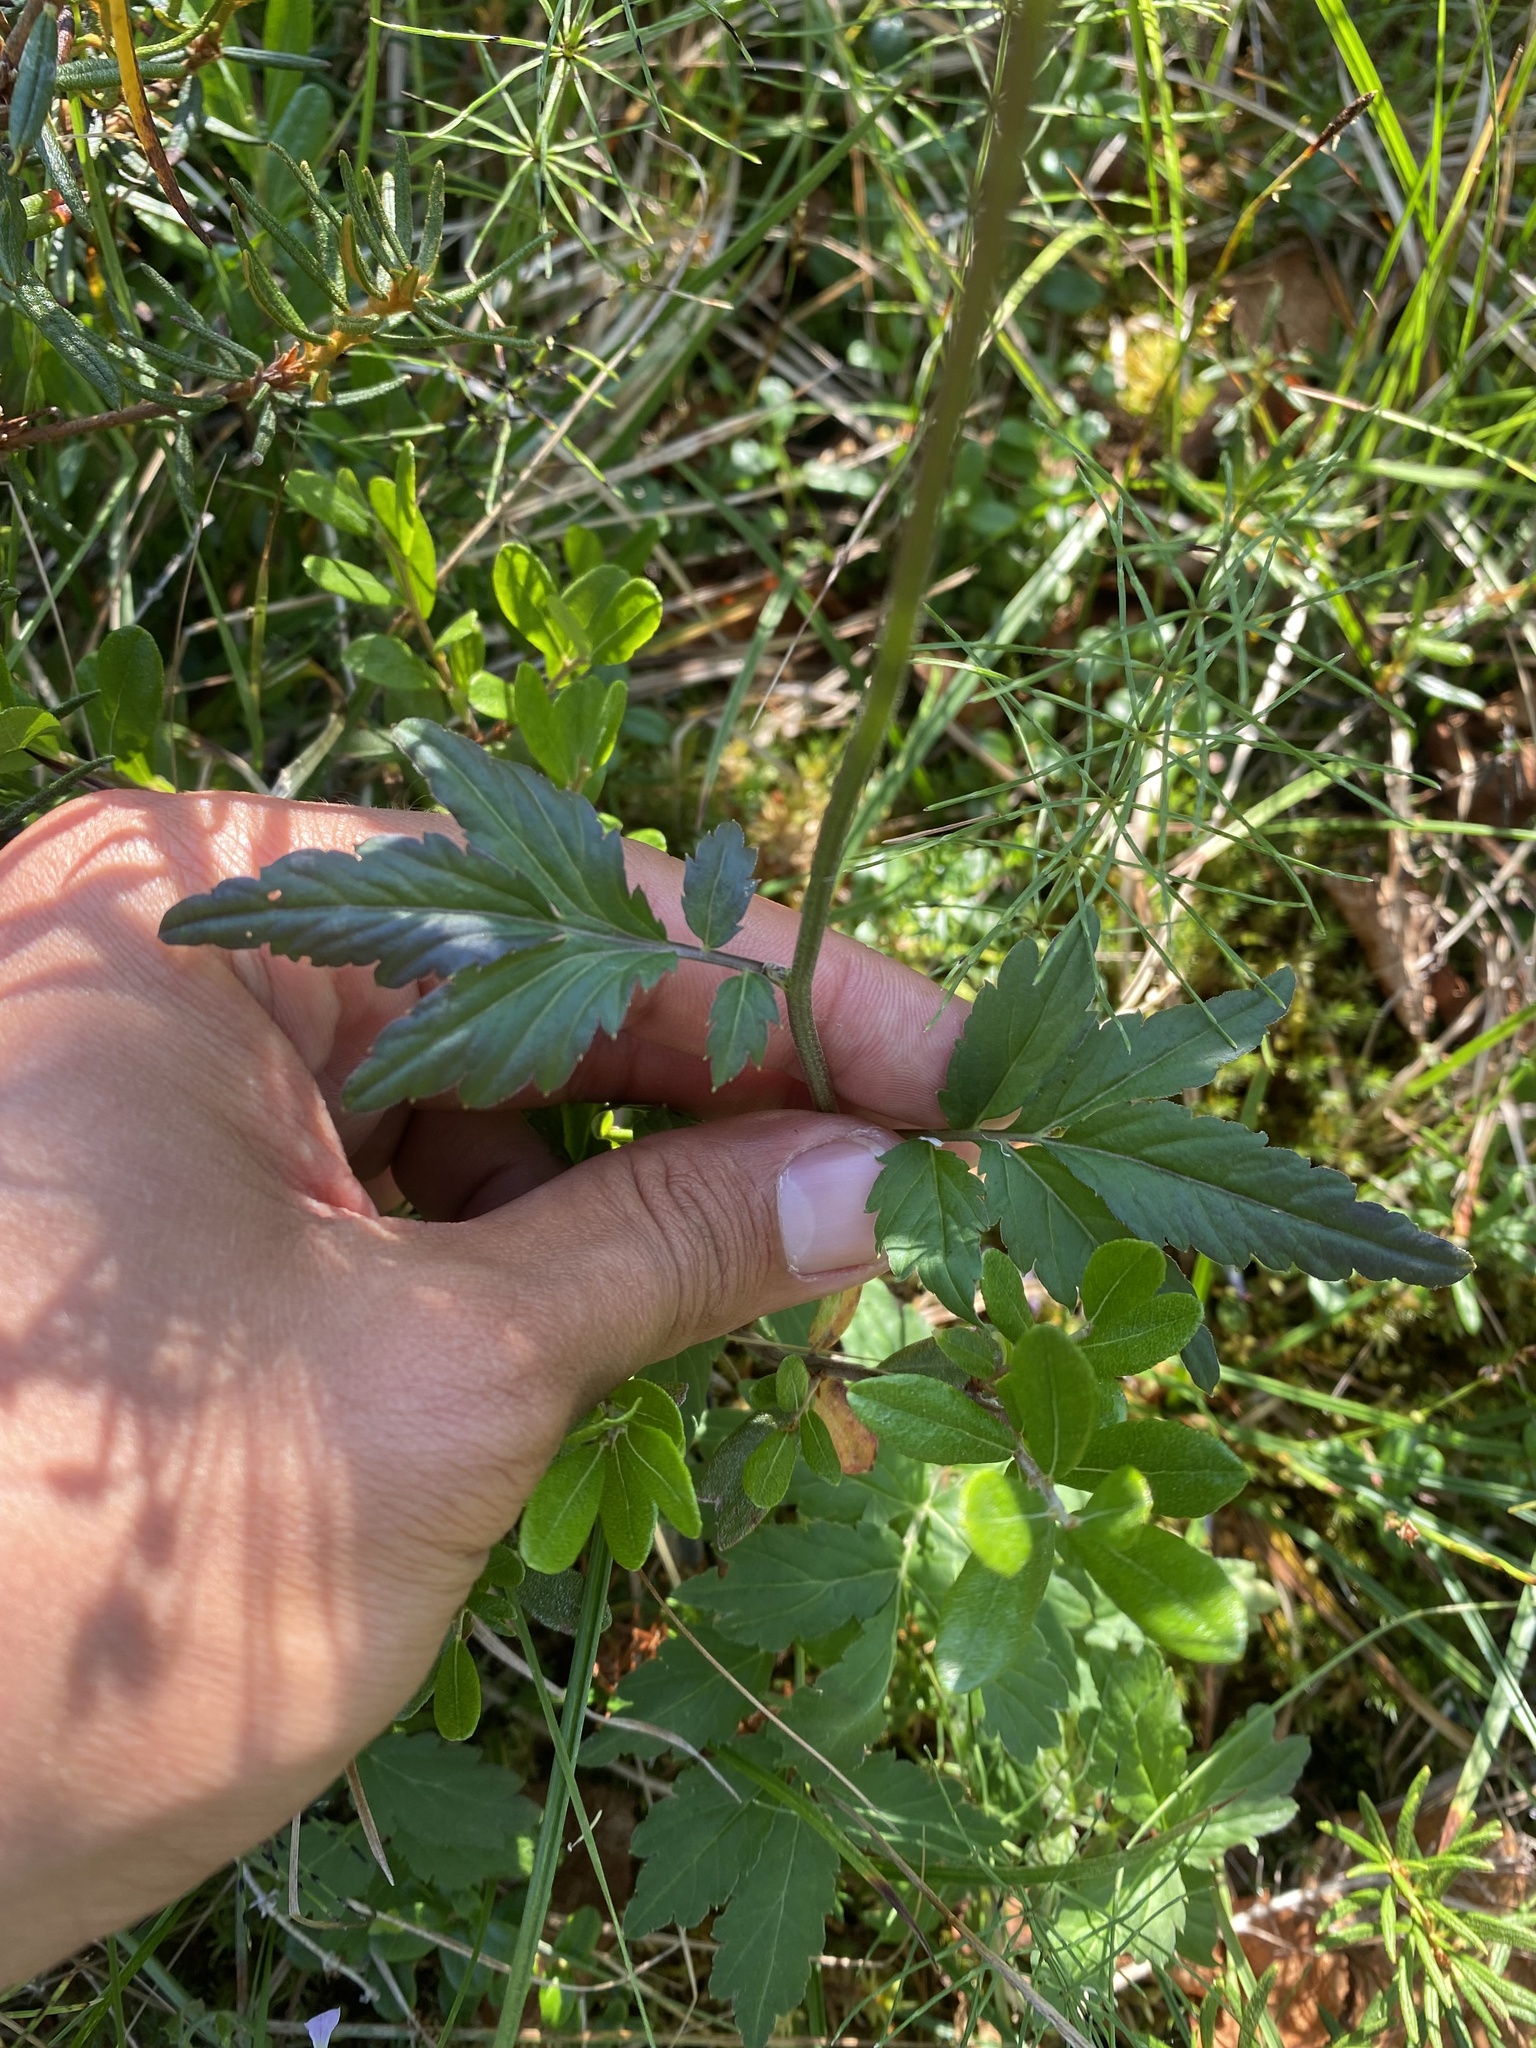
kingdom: Plantae
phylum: Tracheophyta
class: Magnoliopsida
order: Brassicales
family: Brassicaceae
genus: Cardamine
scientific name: Cardamine macrophylla
